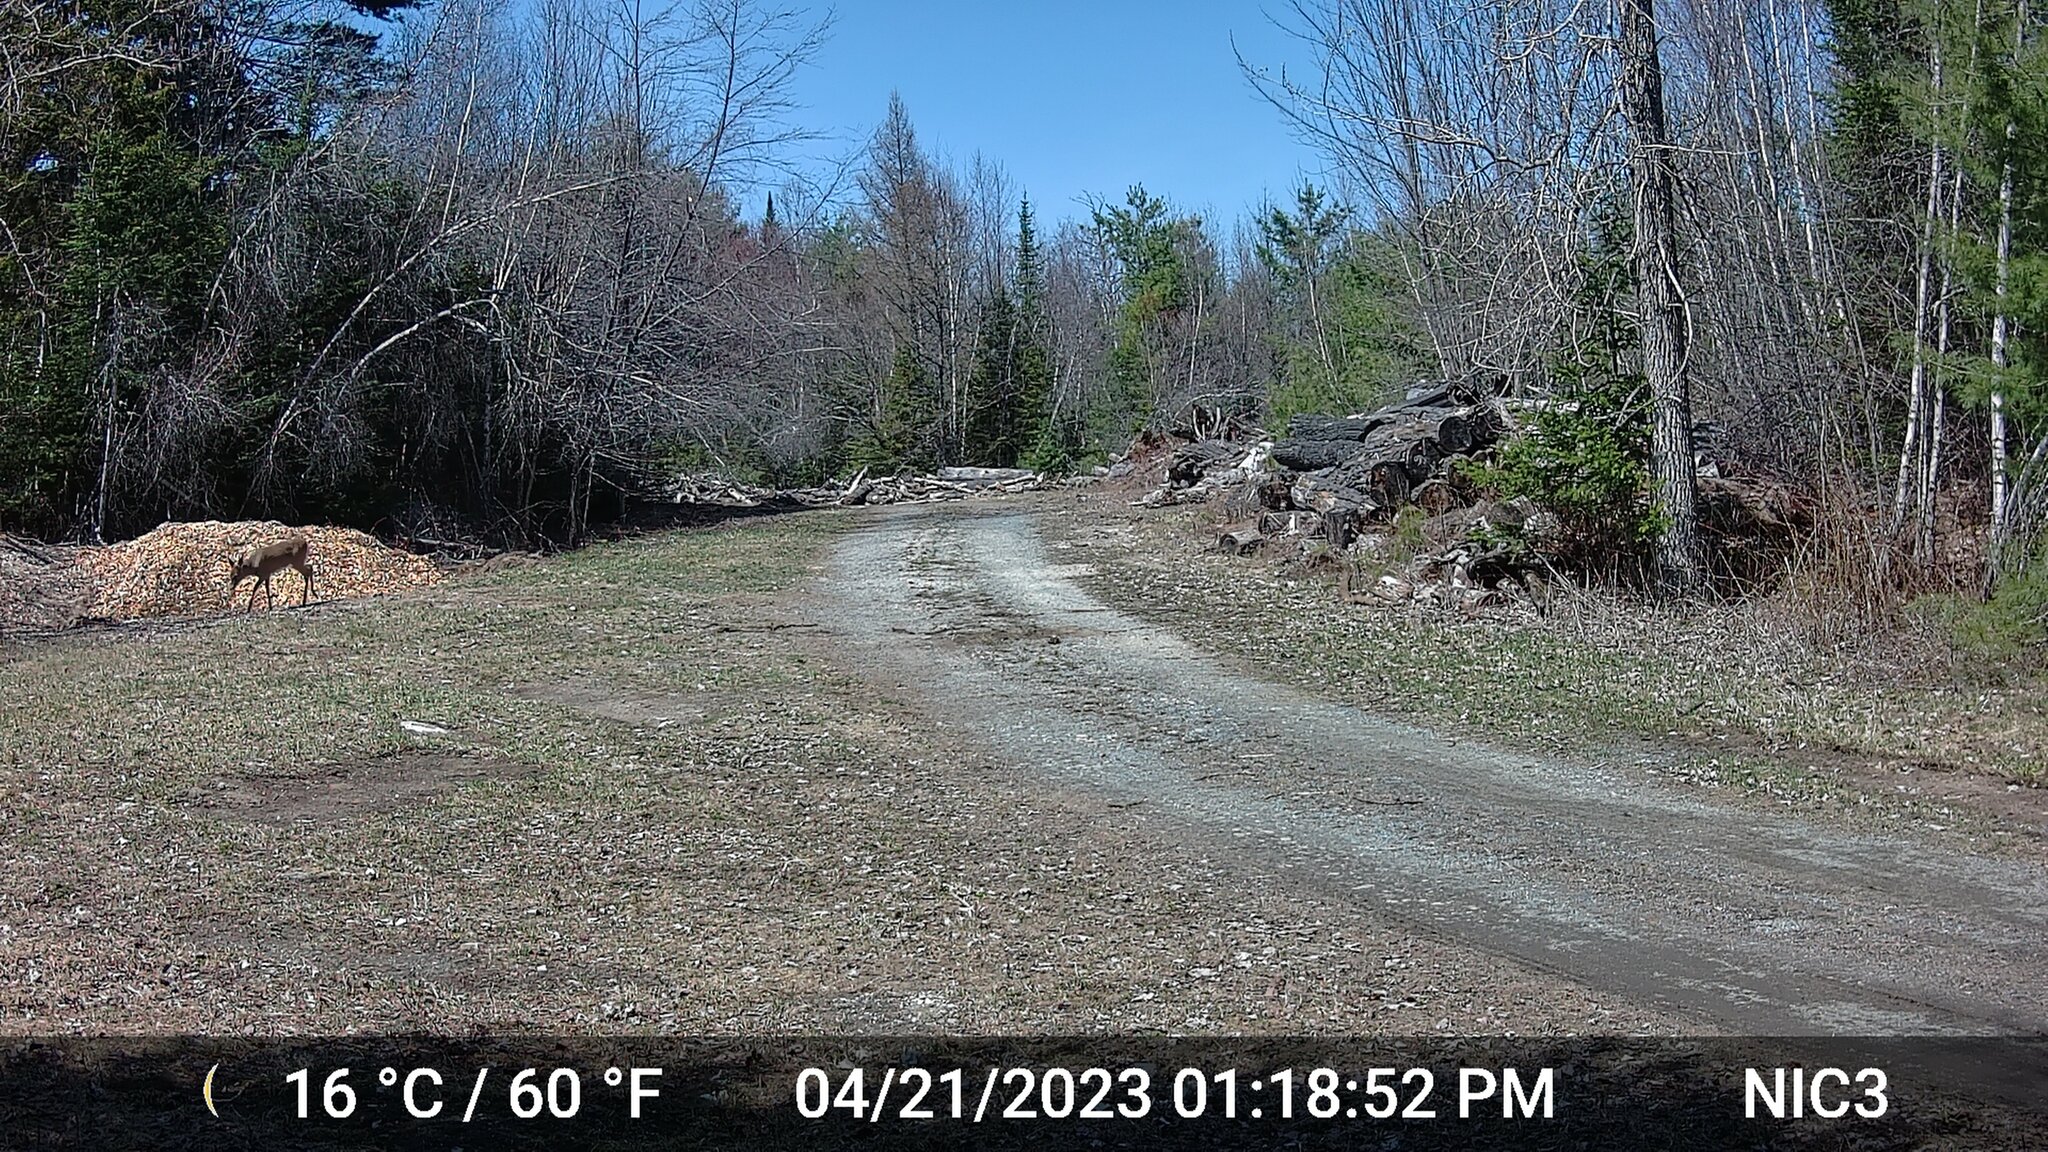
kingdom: Animalia
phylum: Chordata
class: Mammalia
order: Artiodactyla
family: Cervidae
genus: Odocoileus
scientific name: Odocoileus virginianus
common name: White-tailed deer
